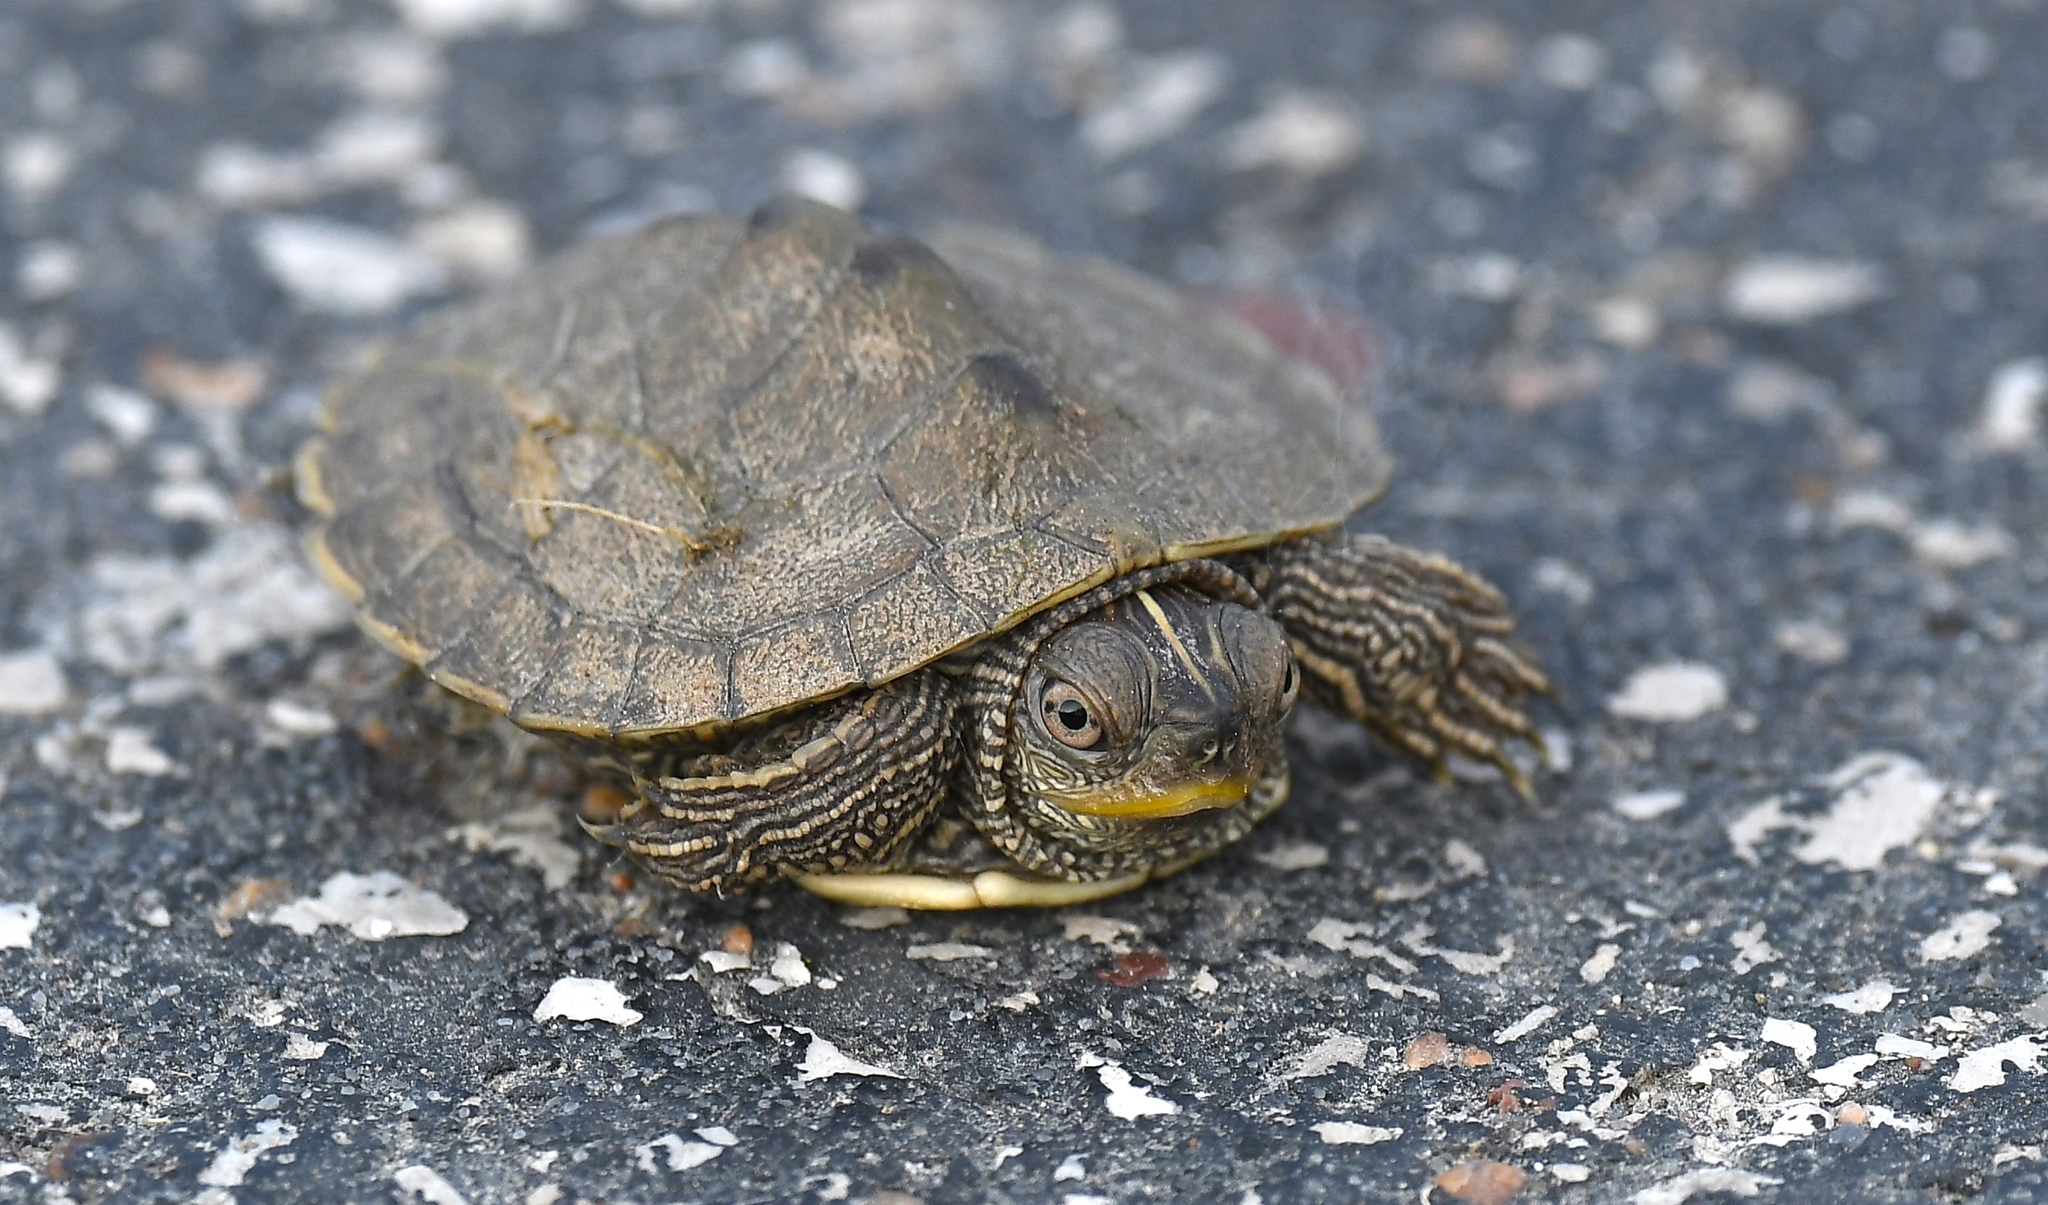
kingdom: Animalia
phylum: Chordata
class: Testudines
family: Emydidae
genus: Graptemys
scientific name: Graptemys geographica
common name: Common map turtle
